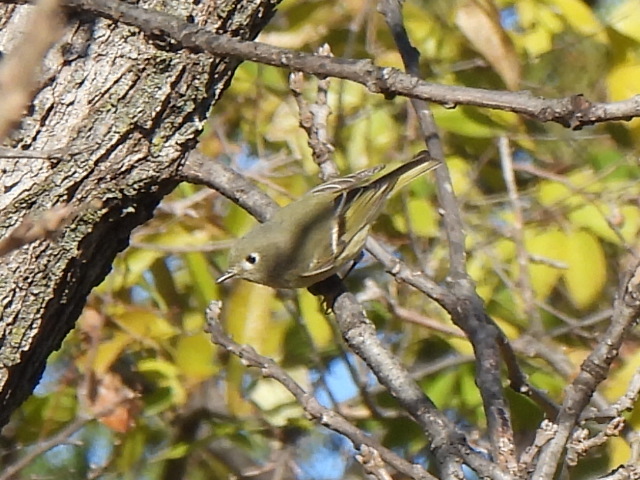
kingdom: Animalia
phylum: Chordata
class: Aves
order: Passeriformes
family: Regulidae
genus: Regulus
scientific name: Regulus calendula
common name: Ruby-crowned kinglet
